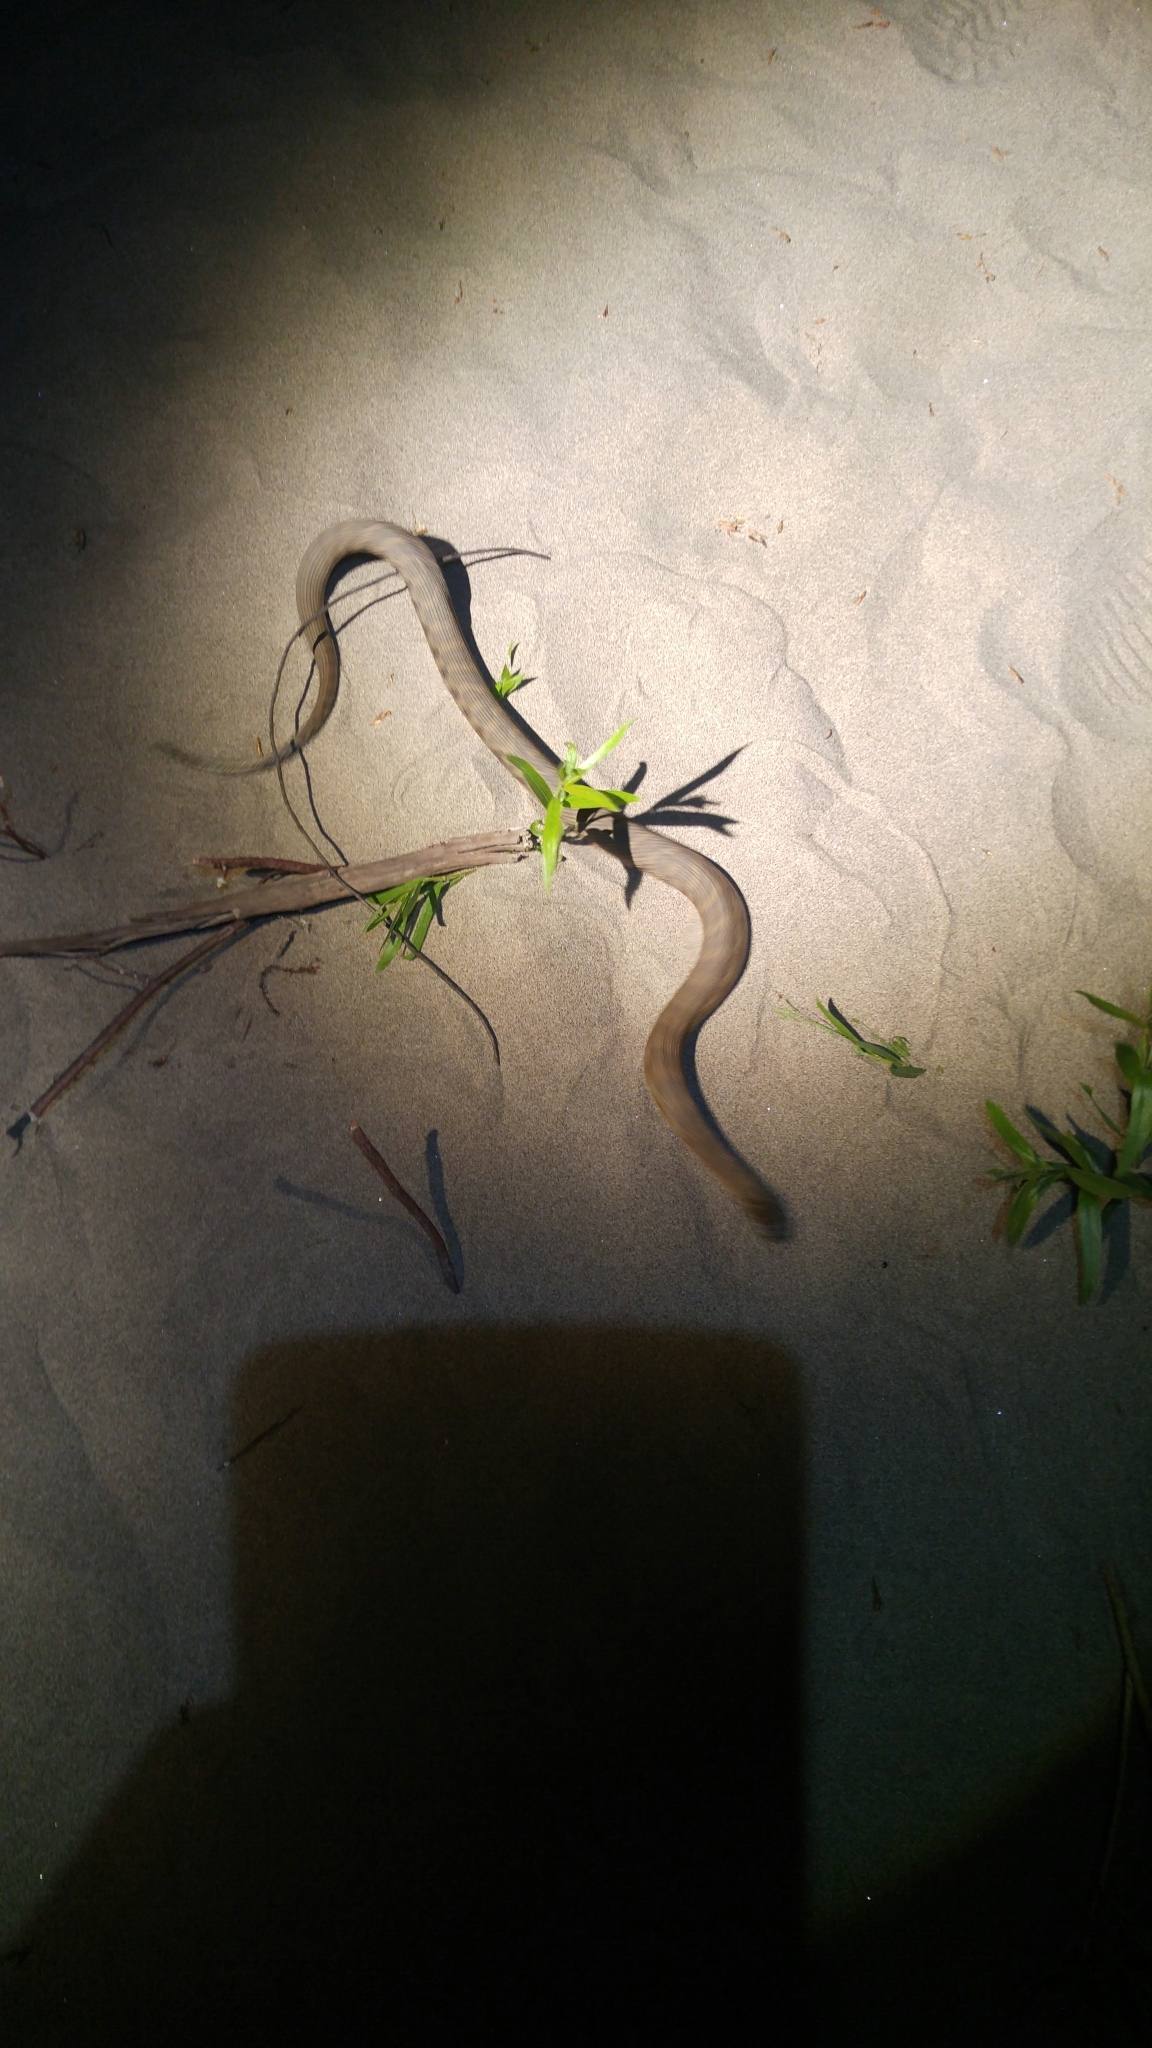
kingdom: Animalia
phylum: Chordata
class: Squamata
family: Colubridae
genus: Nerodia
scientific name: Nerodia sipedon
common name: Northern water snake
